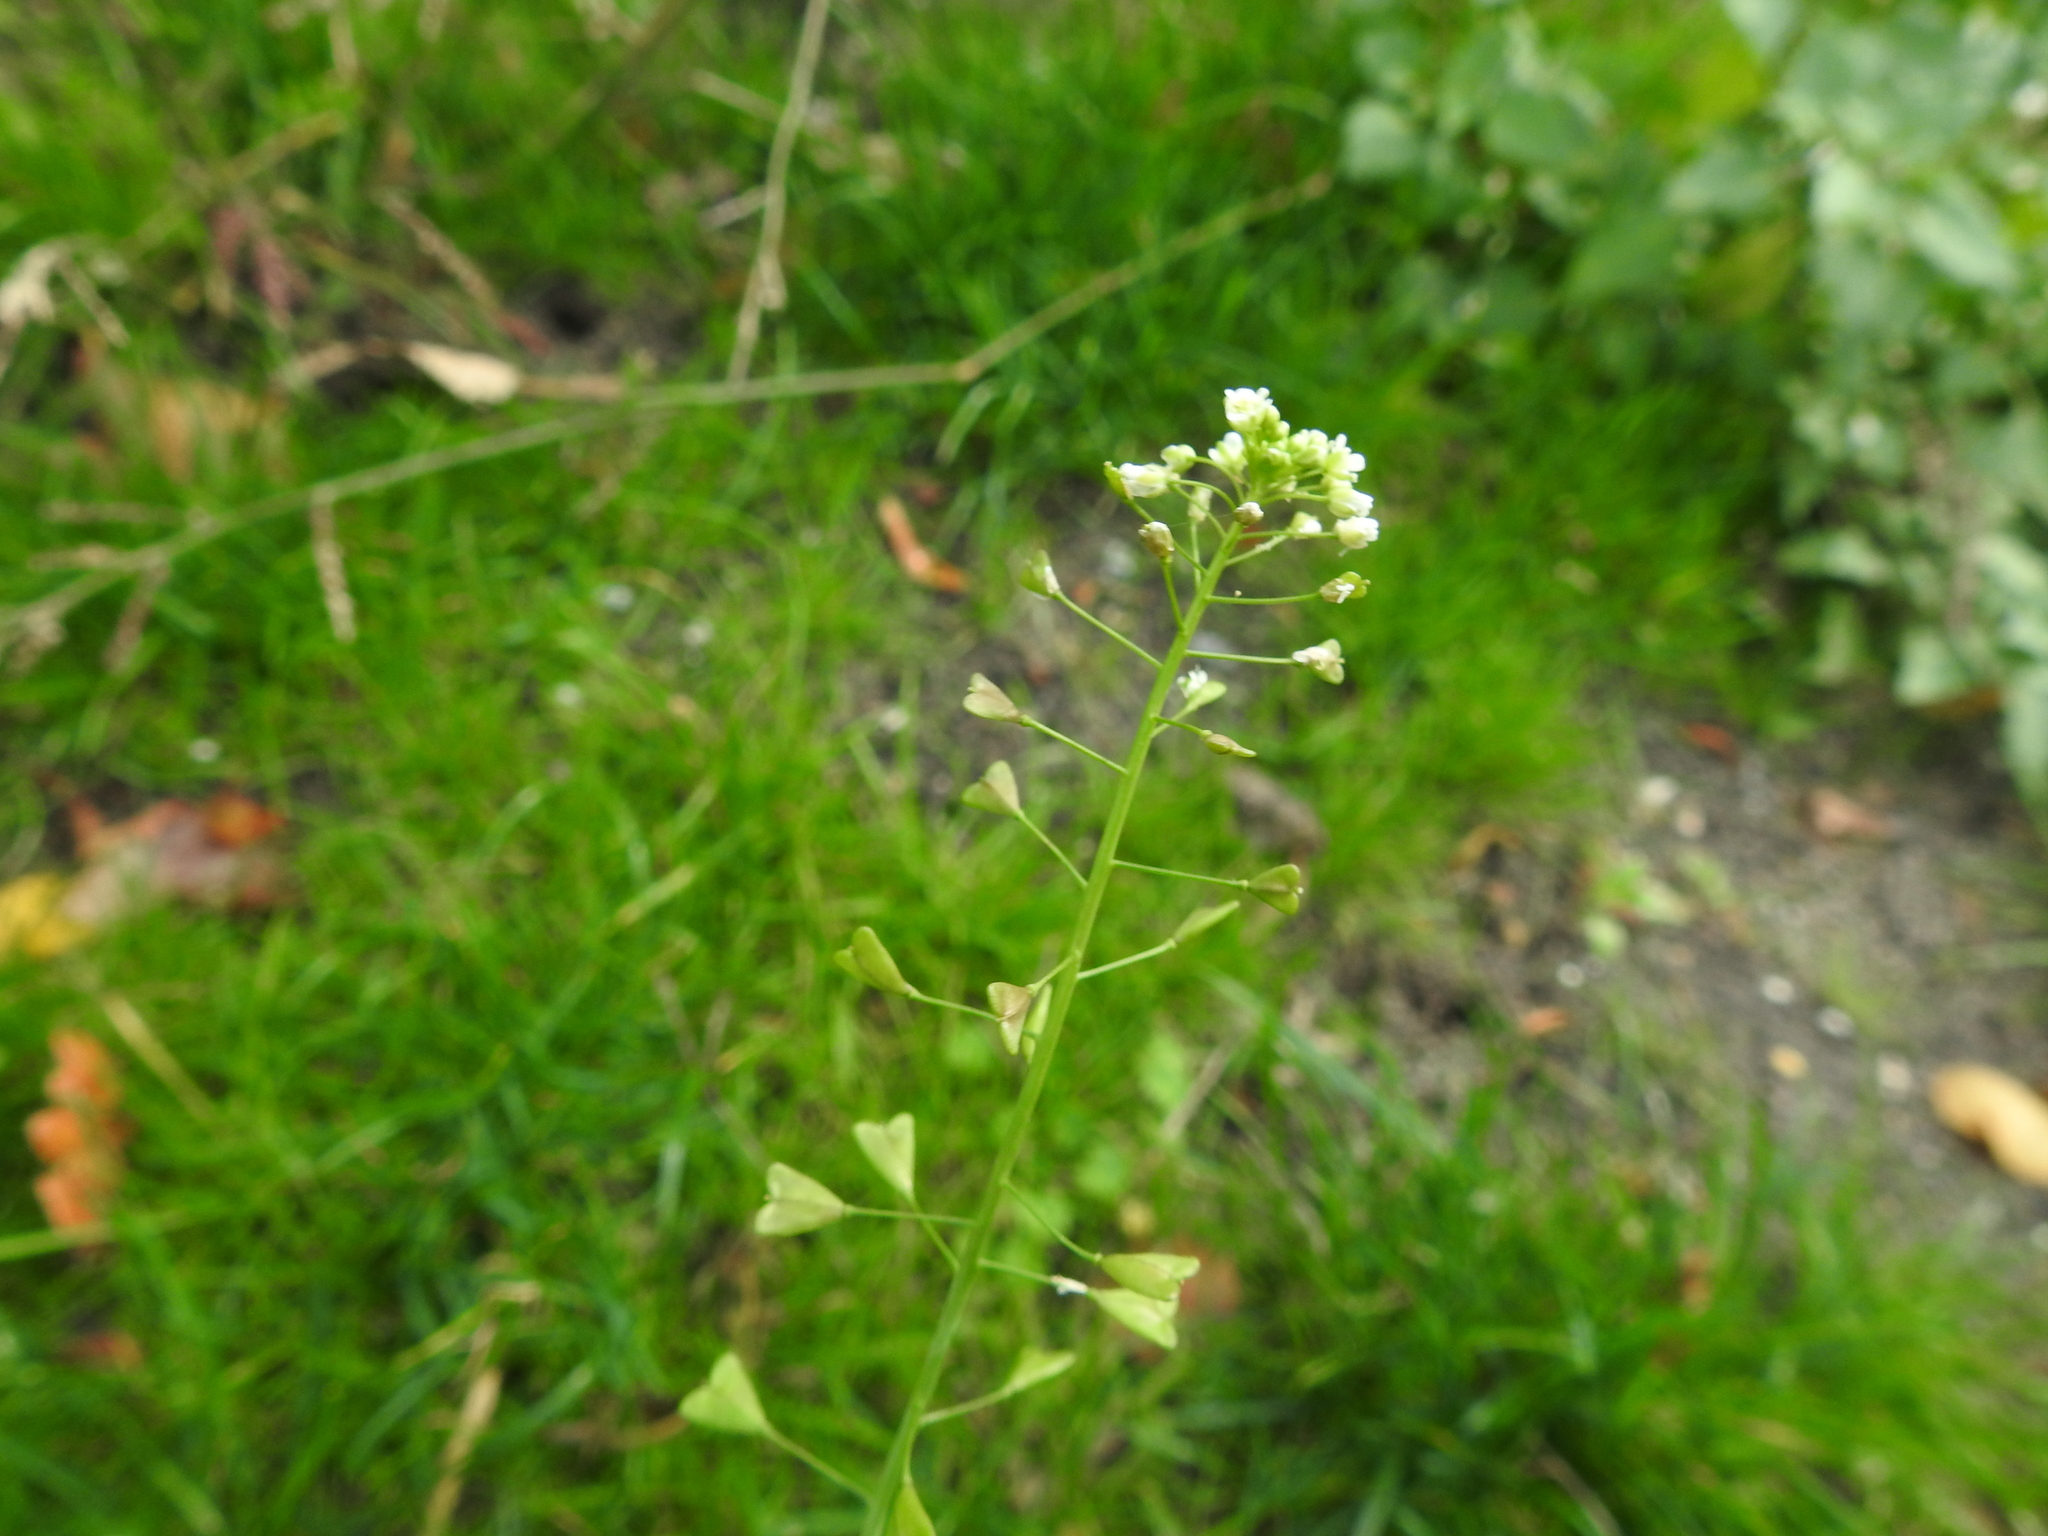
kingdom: Plantae
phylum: Tracheophyta
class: Magnoliopsida
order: Brassicales
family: Brassicaceae
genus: Capsella
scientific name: Capsella bursa-pastoris
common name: Shepherd's purse
